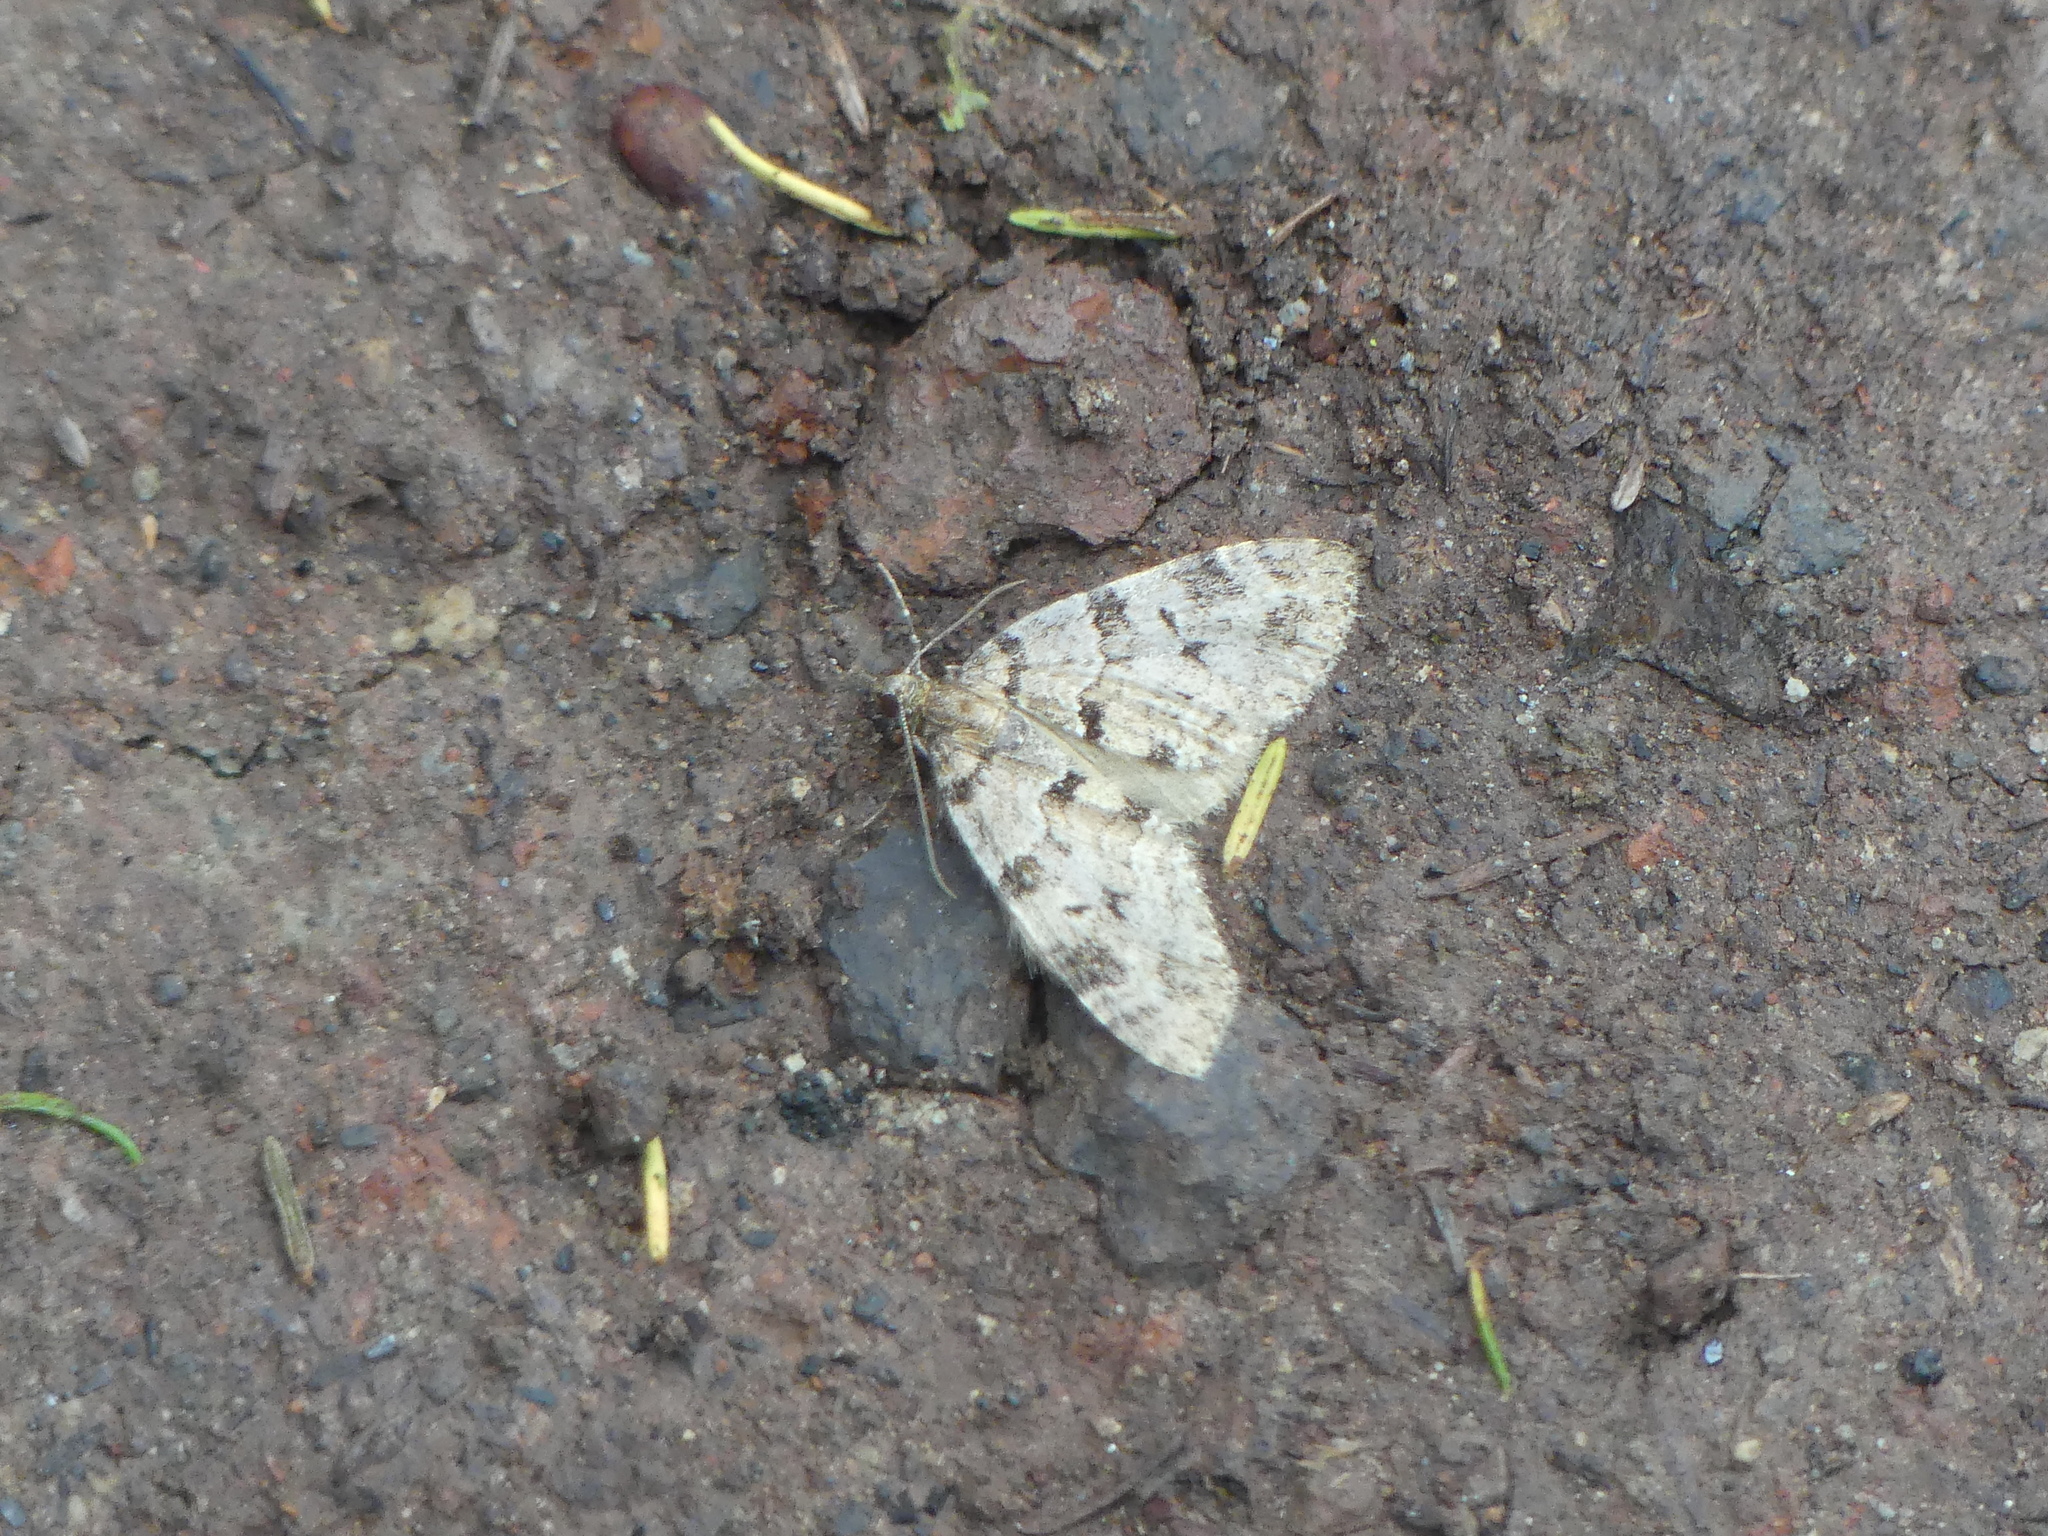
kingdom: Animalia
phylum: Arthropoda
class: Insecta
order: Lepidoptera
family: Geometridae
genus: Episauris
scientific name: Episauris kiliani
